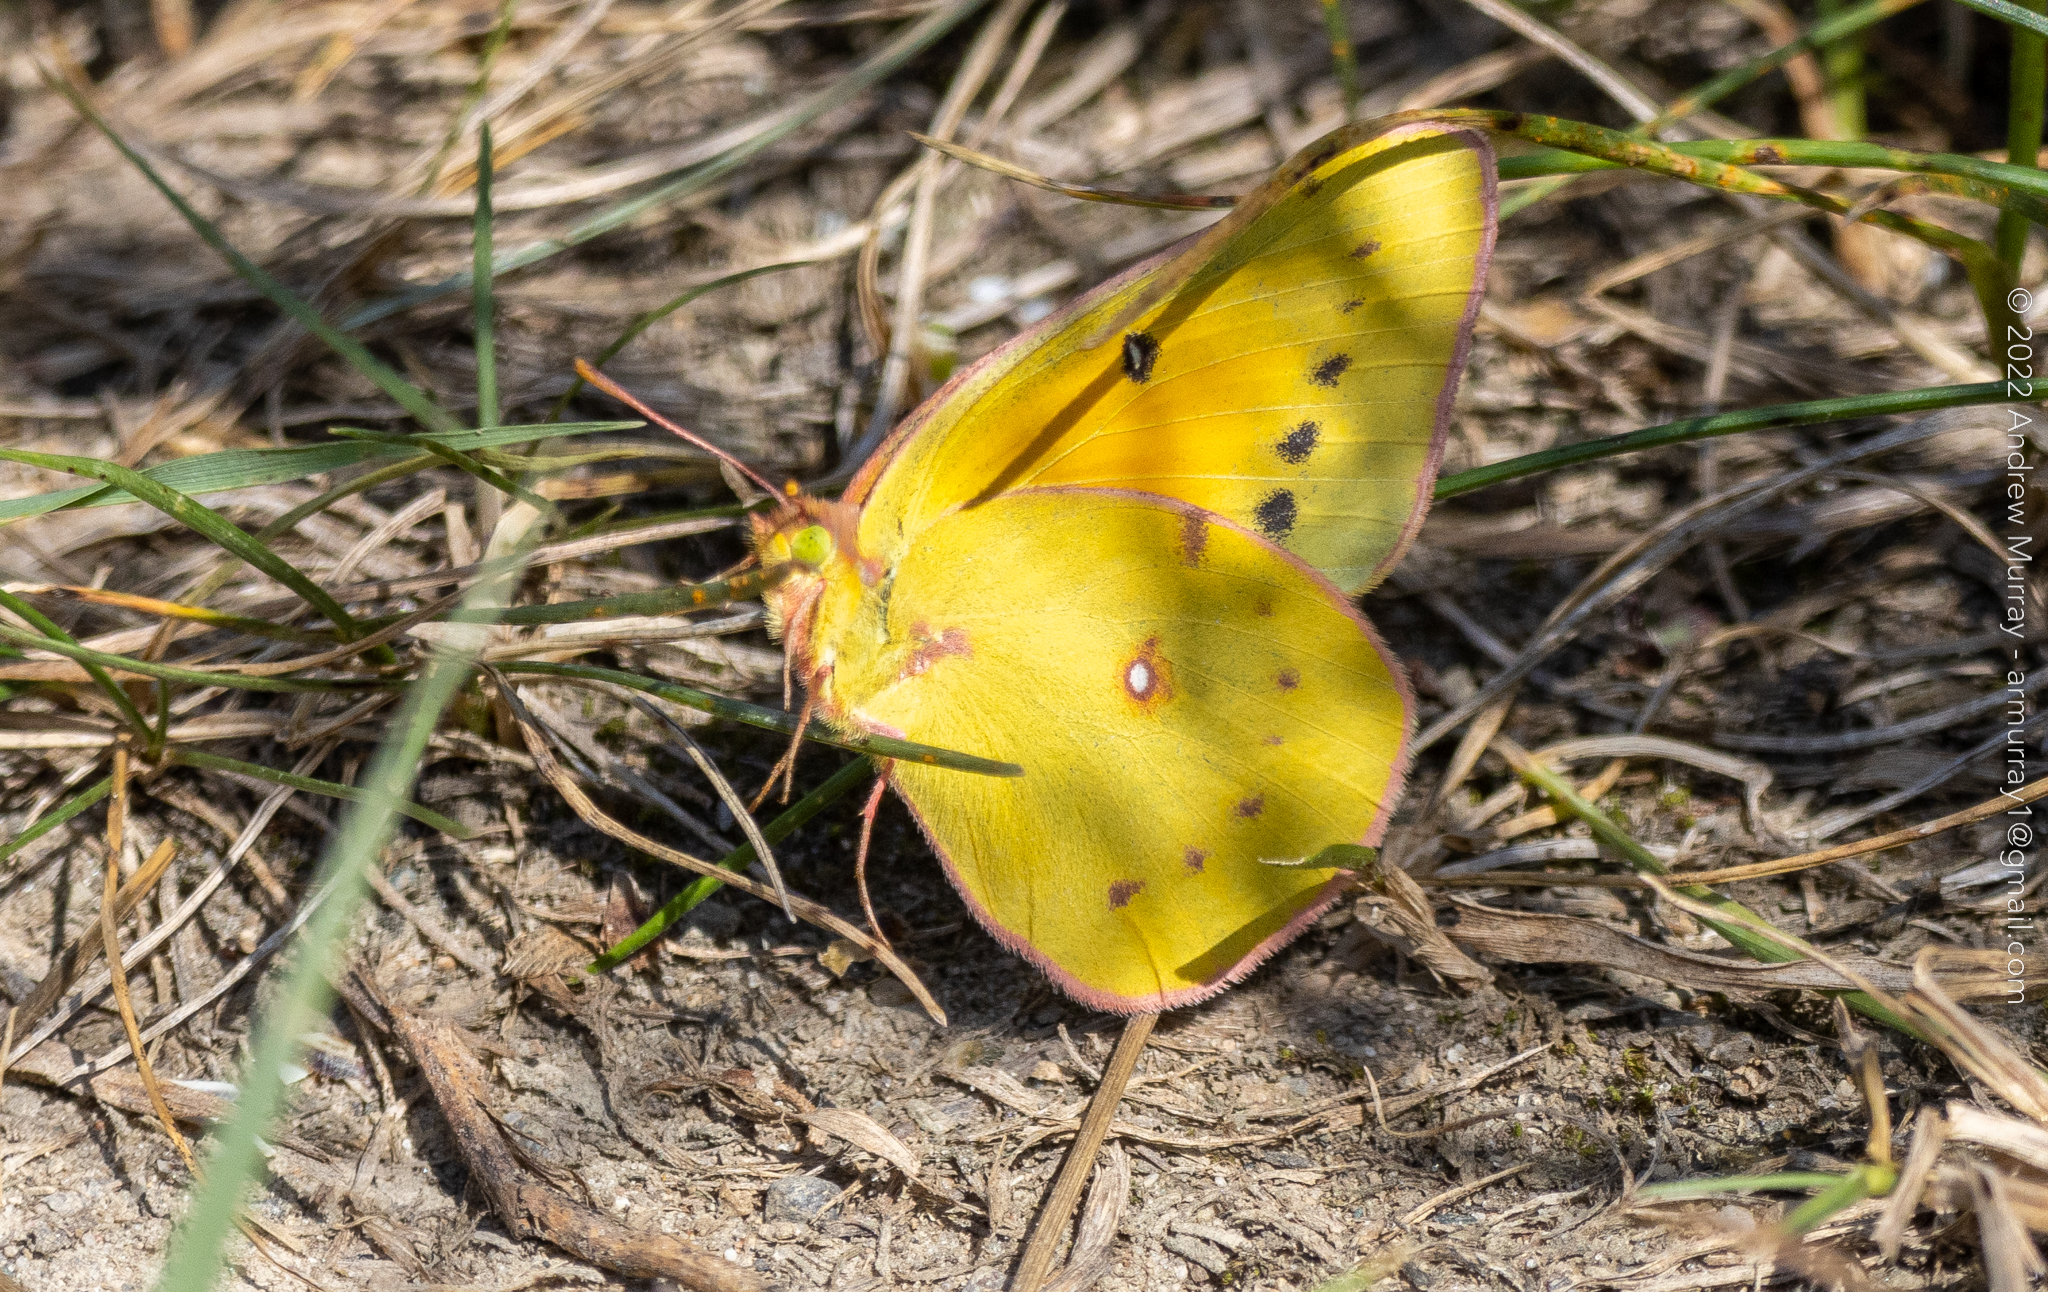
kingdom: Animalia
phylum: Arthropoda
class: Insecta
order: Lepidoptera
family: Pieridae
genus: Colias
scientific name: Colias eurytheme
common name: Alfalfa butterfly
